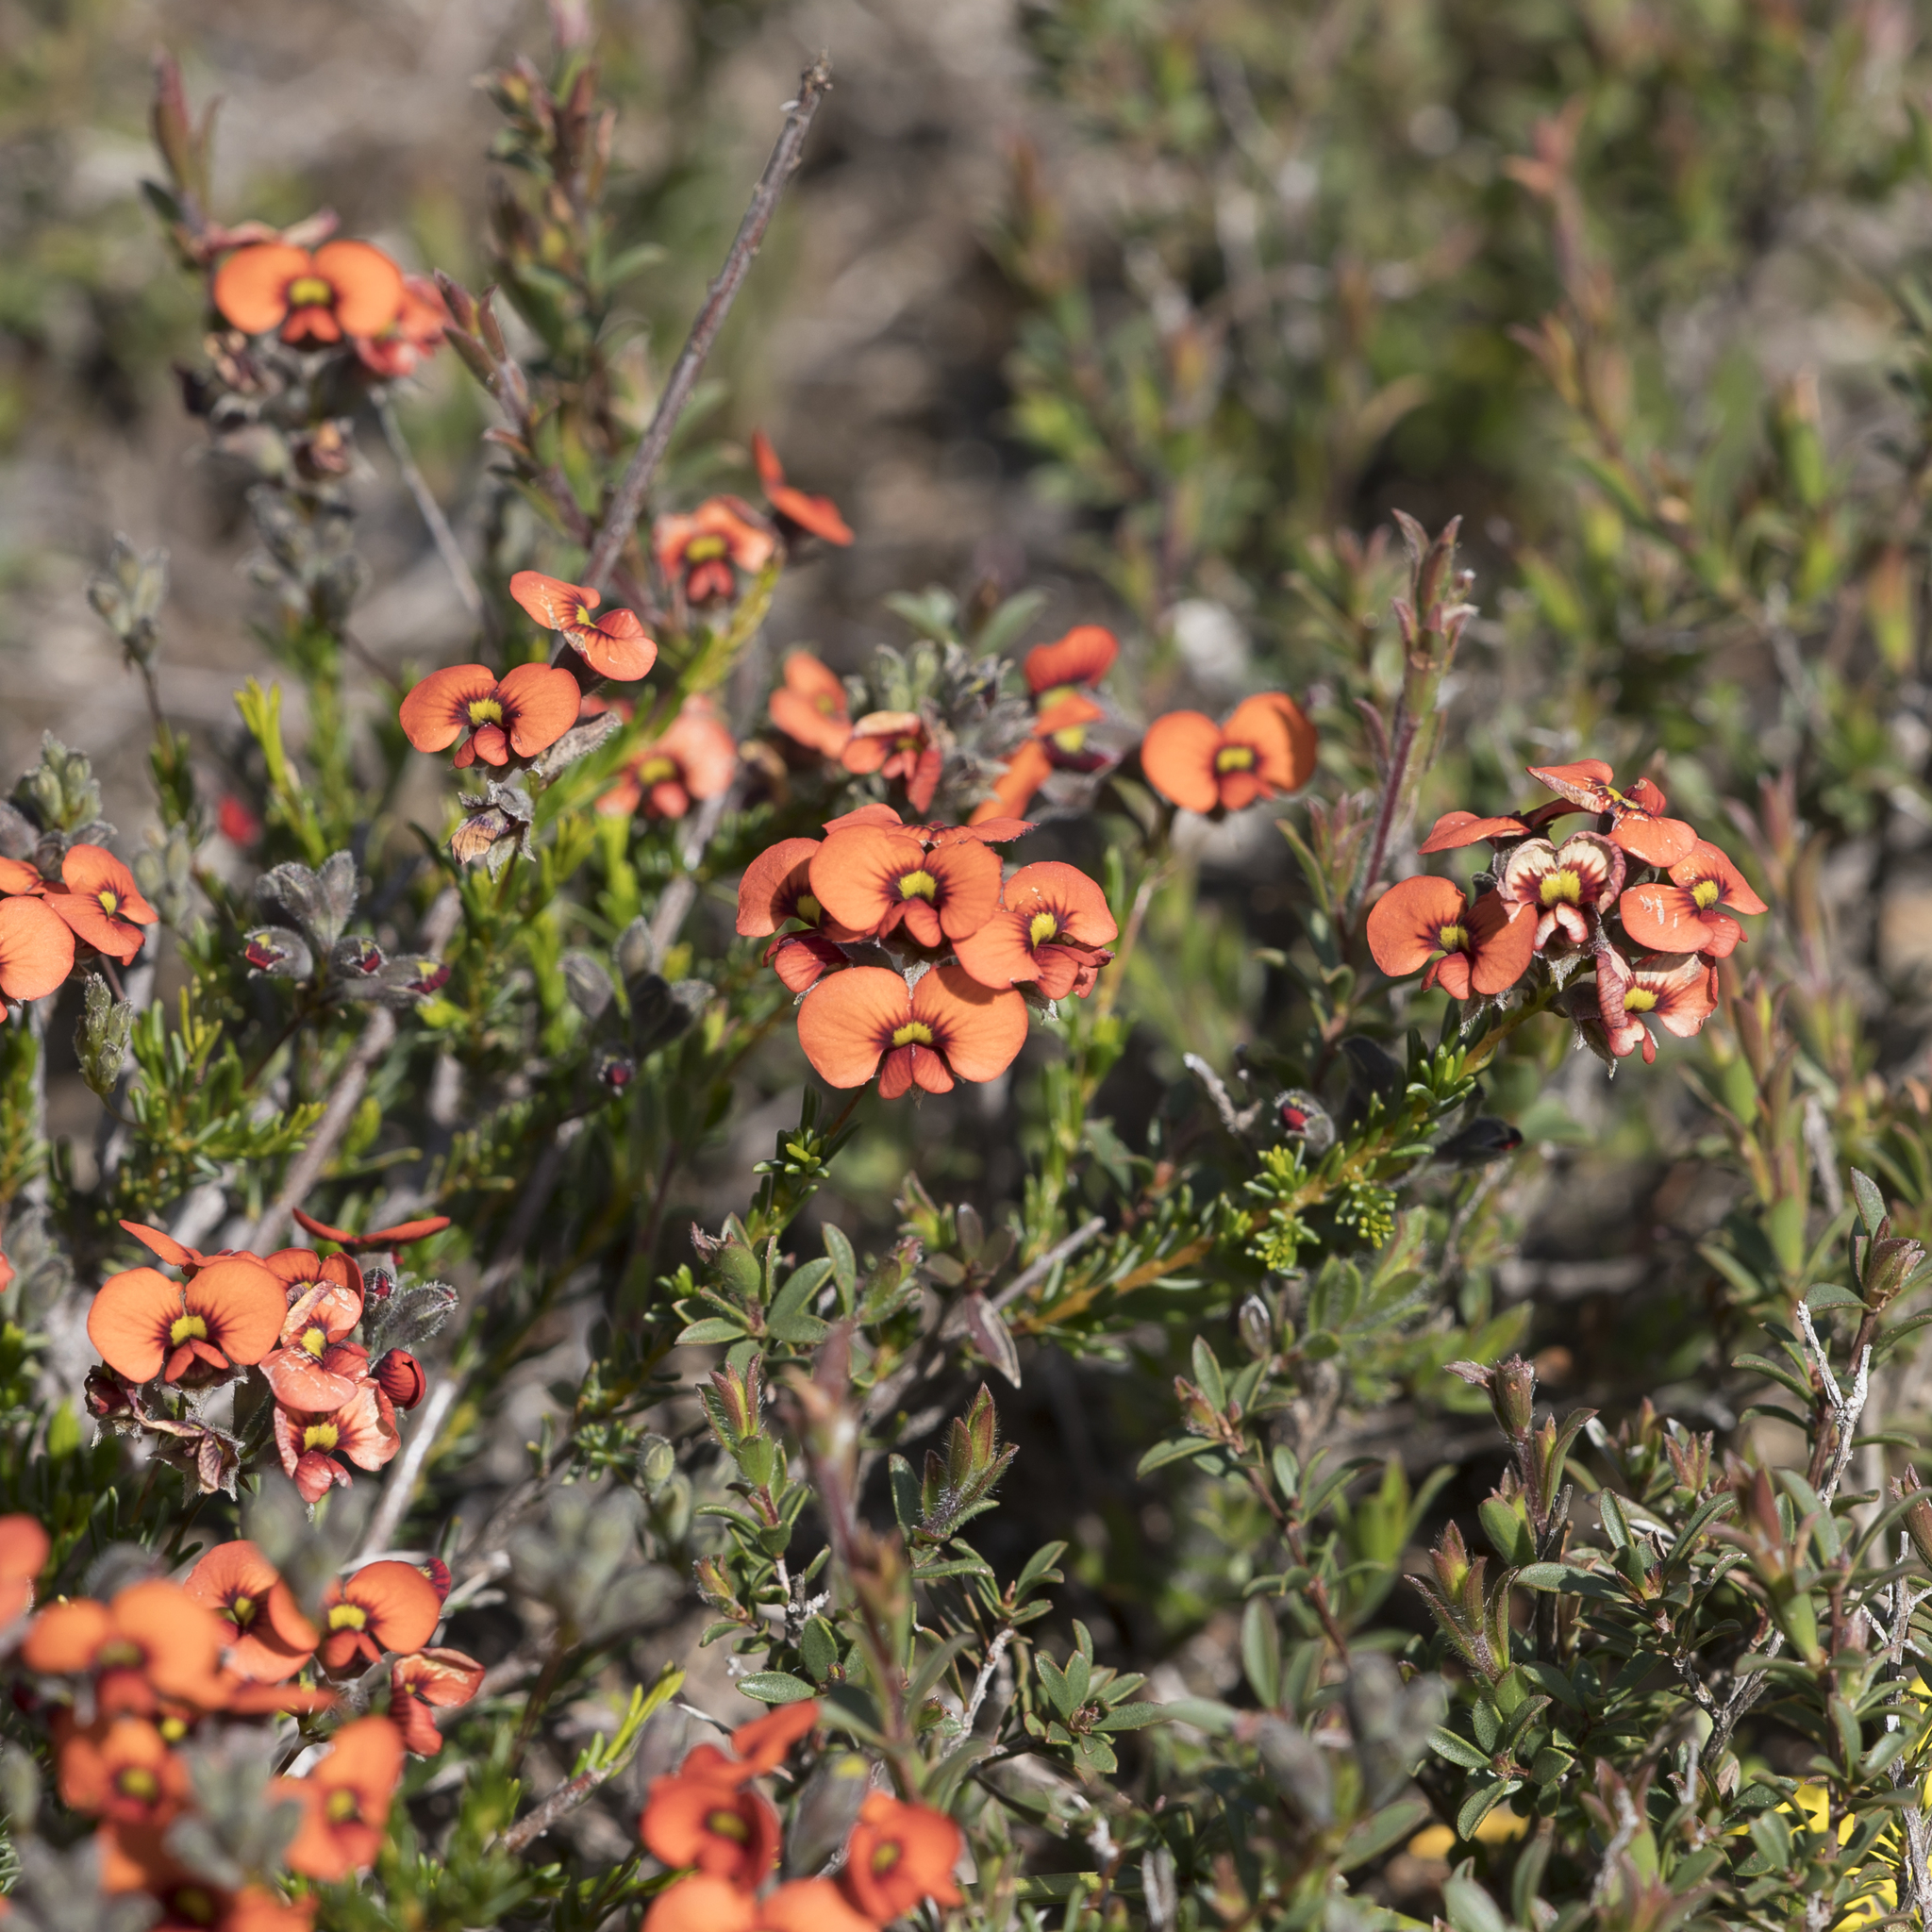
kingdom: Plantae
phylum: Tracheophyta
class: Magnoliopsida
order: Fabales
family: Fabaceae
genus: Dillwynia
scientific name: Dillwynia hispida
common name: Red parrot-pea
